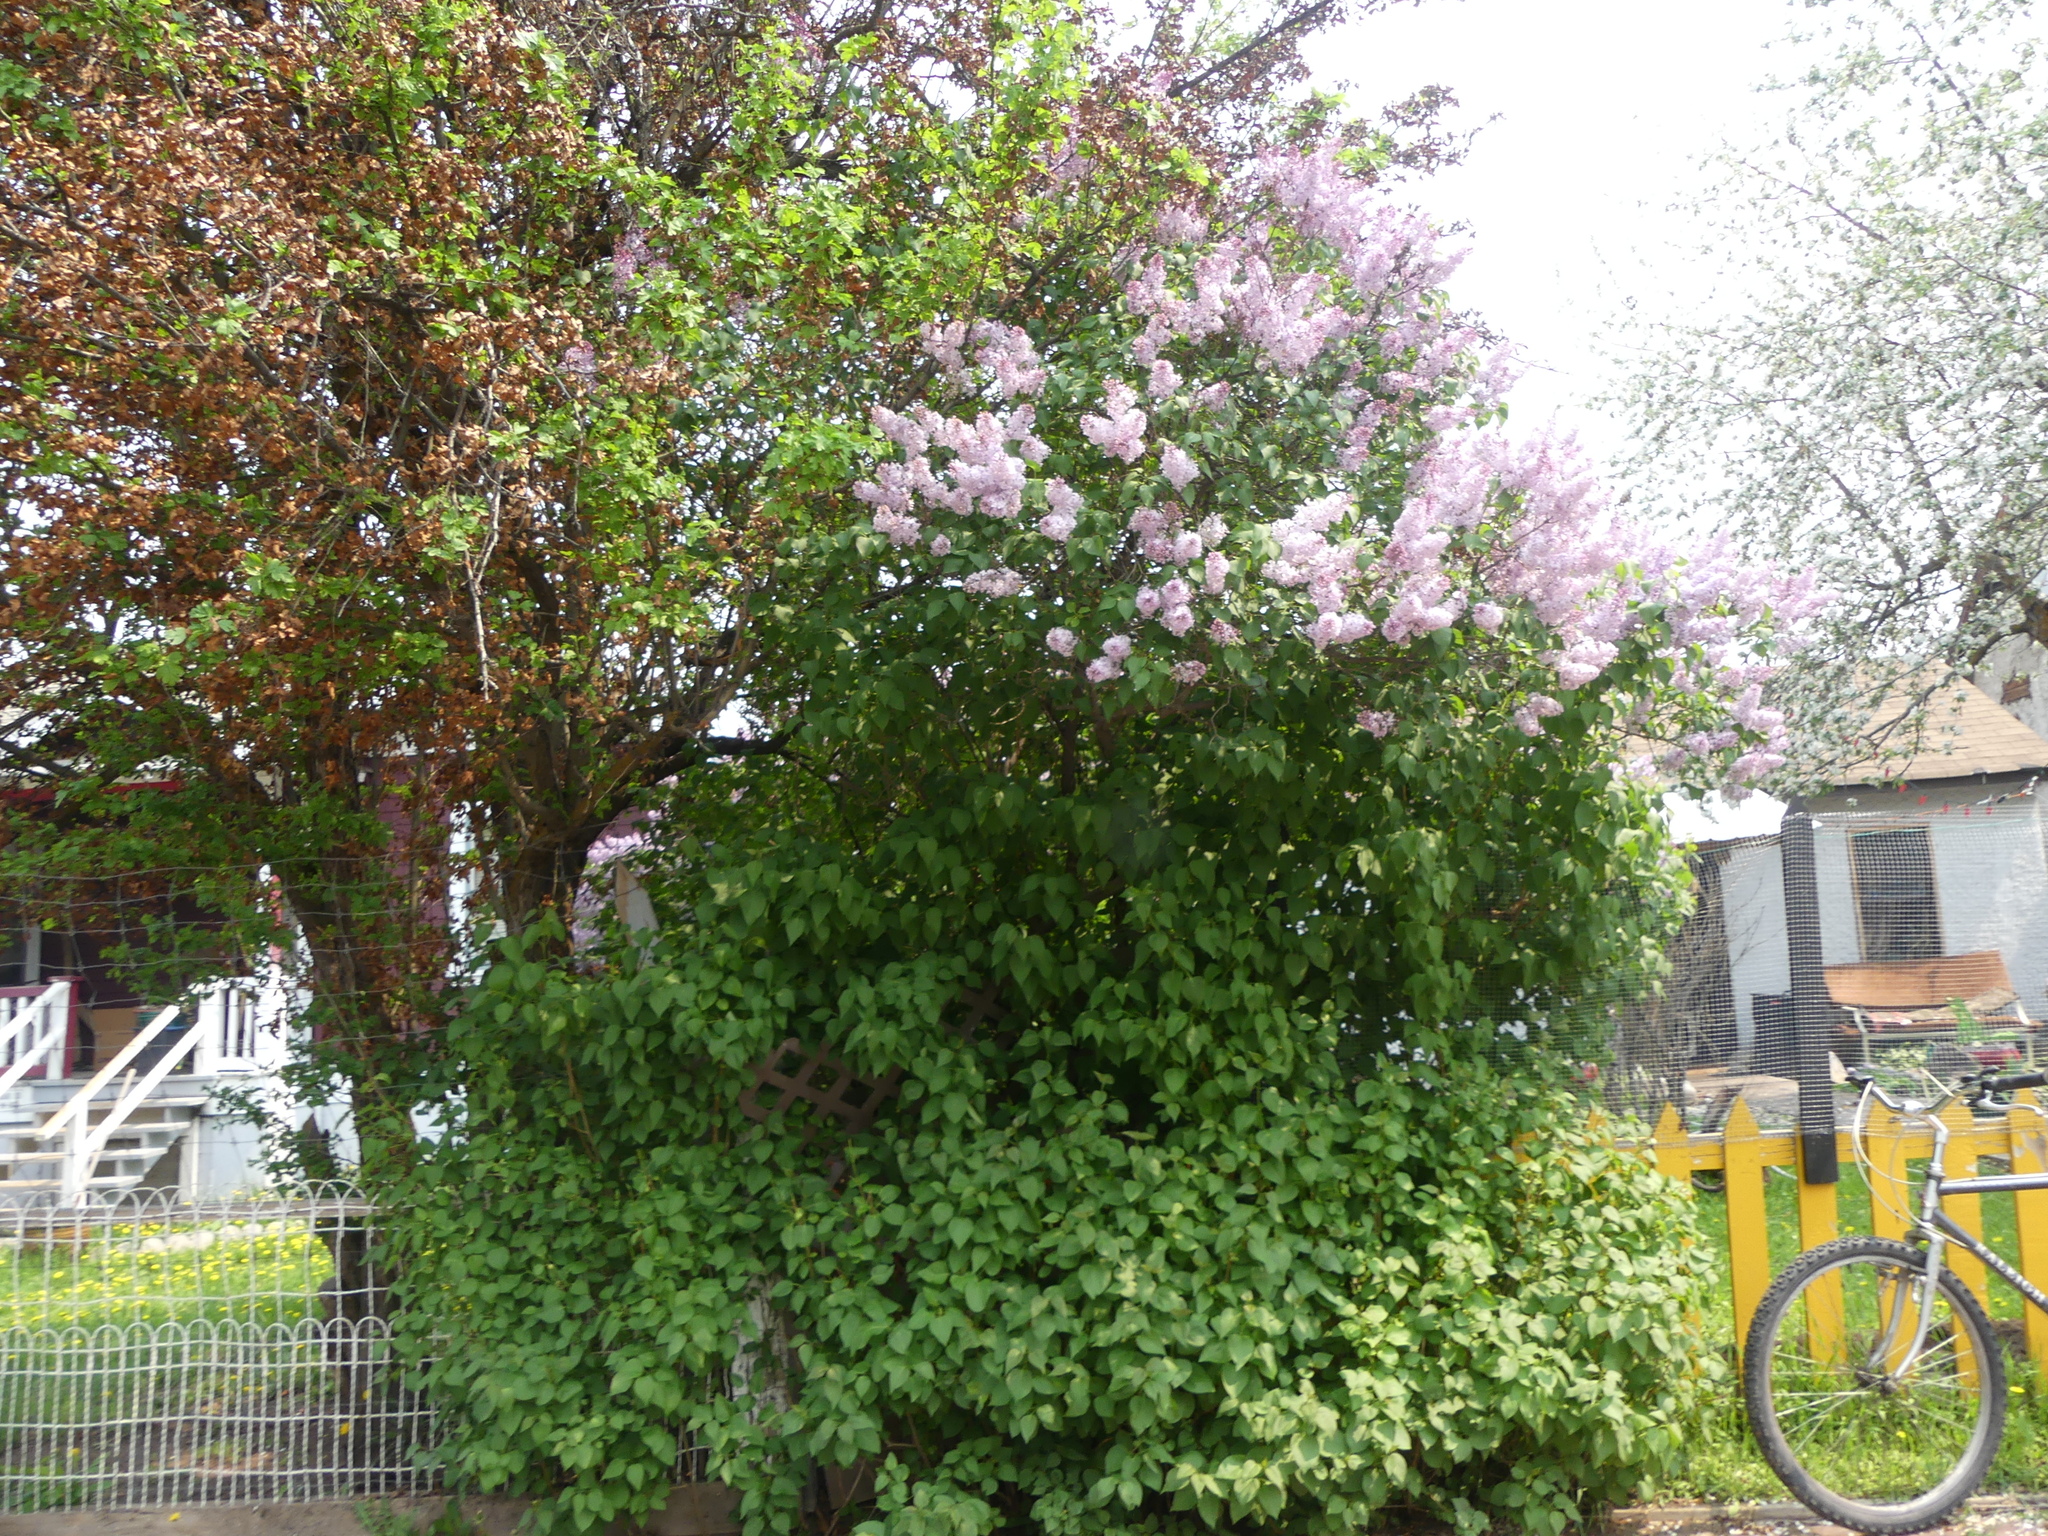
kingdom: Plantae
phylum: Tracheophyta
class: Magnoliopsida
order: Lamiales
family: Oleaceae
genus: Syringa
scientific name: Syringa vulgaris
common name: Common lilac
